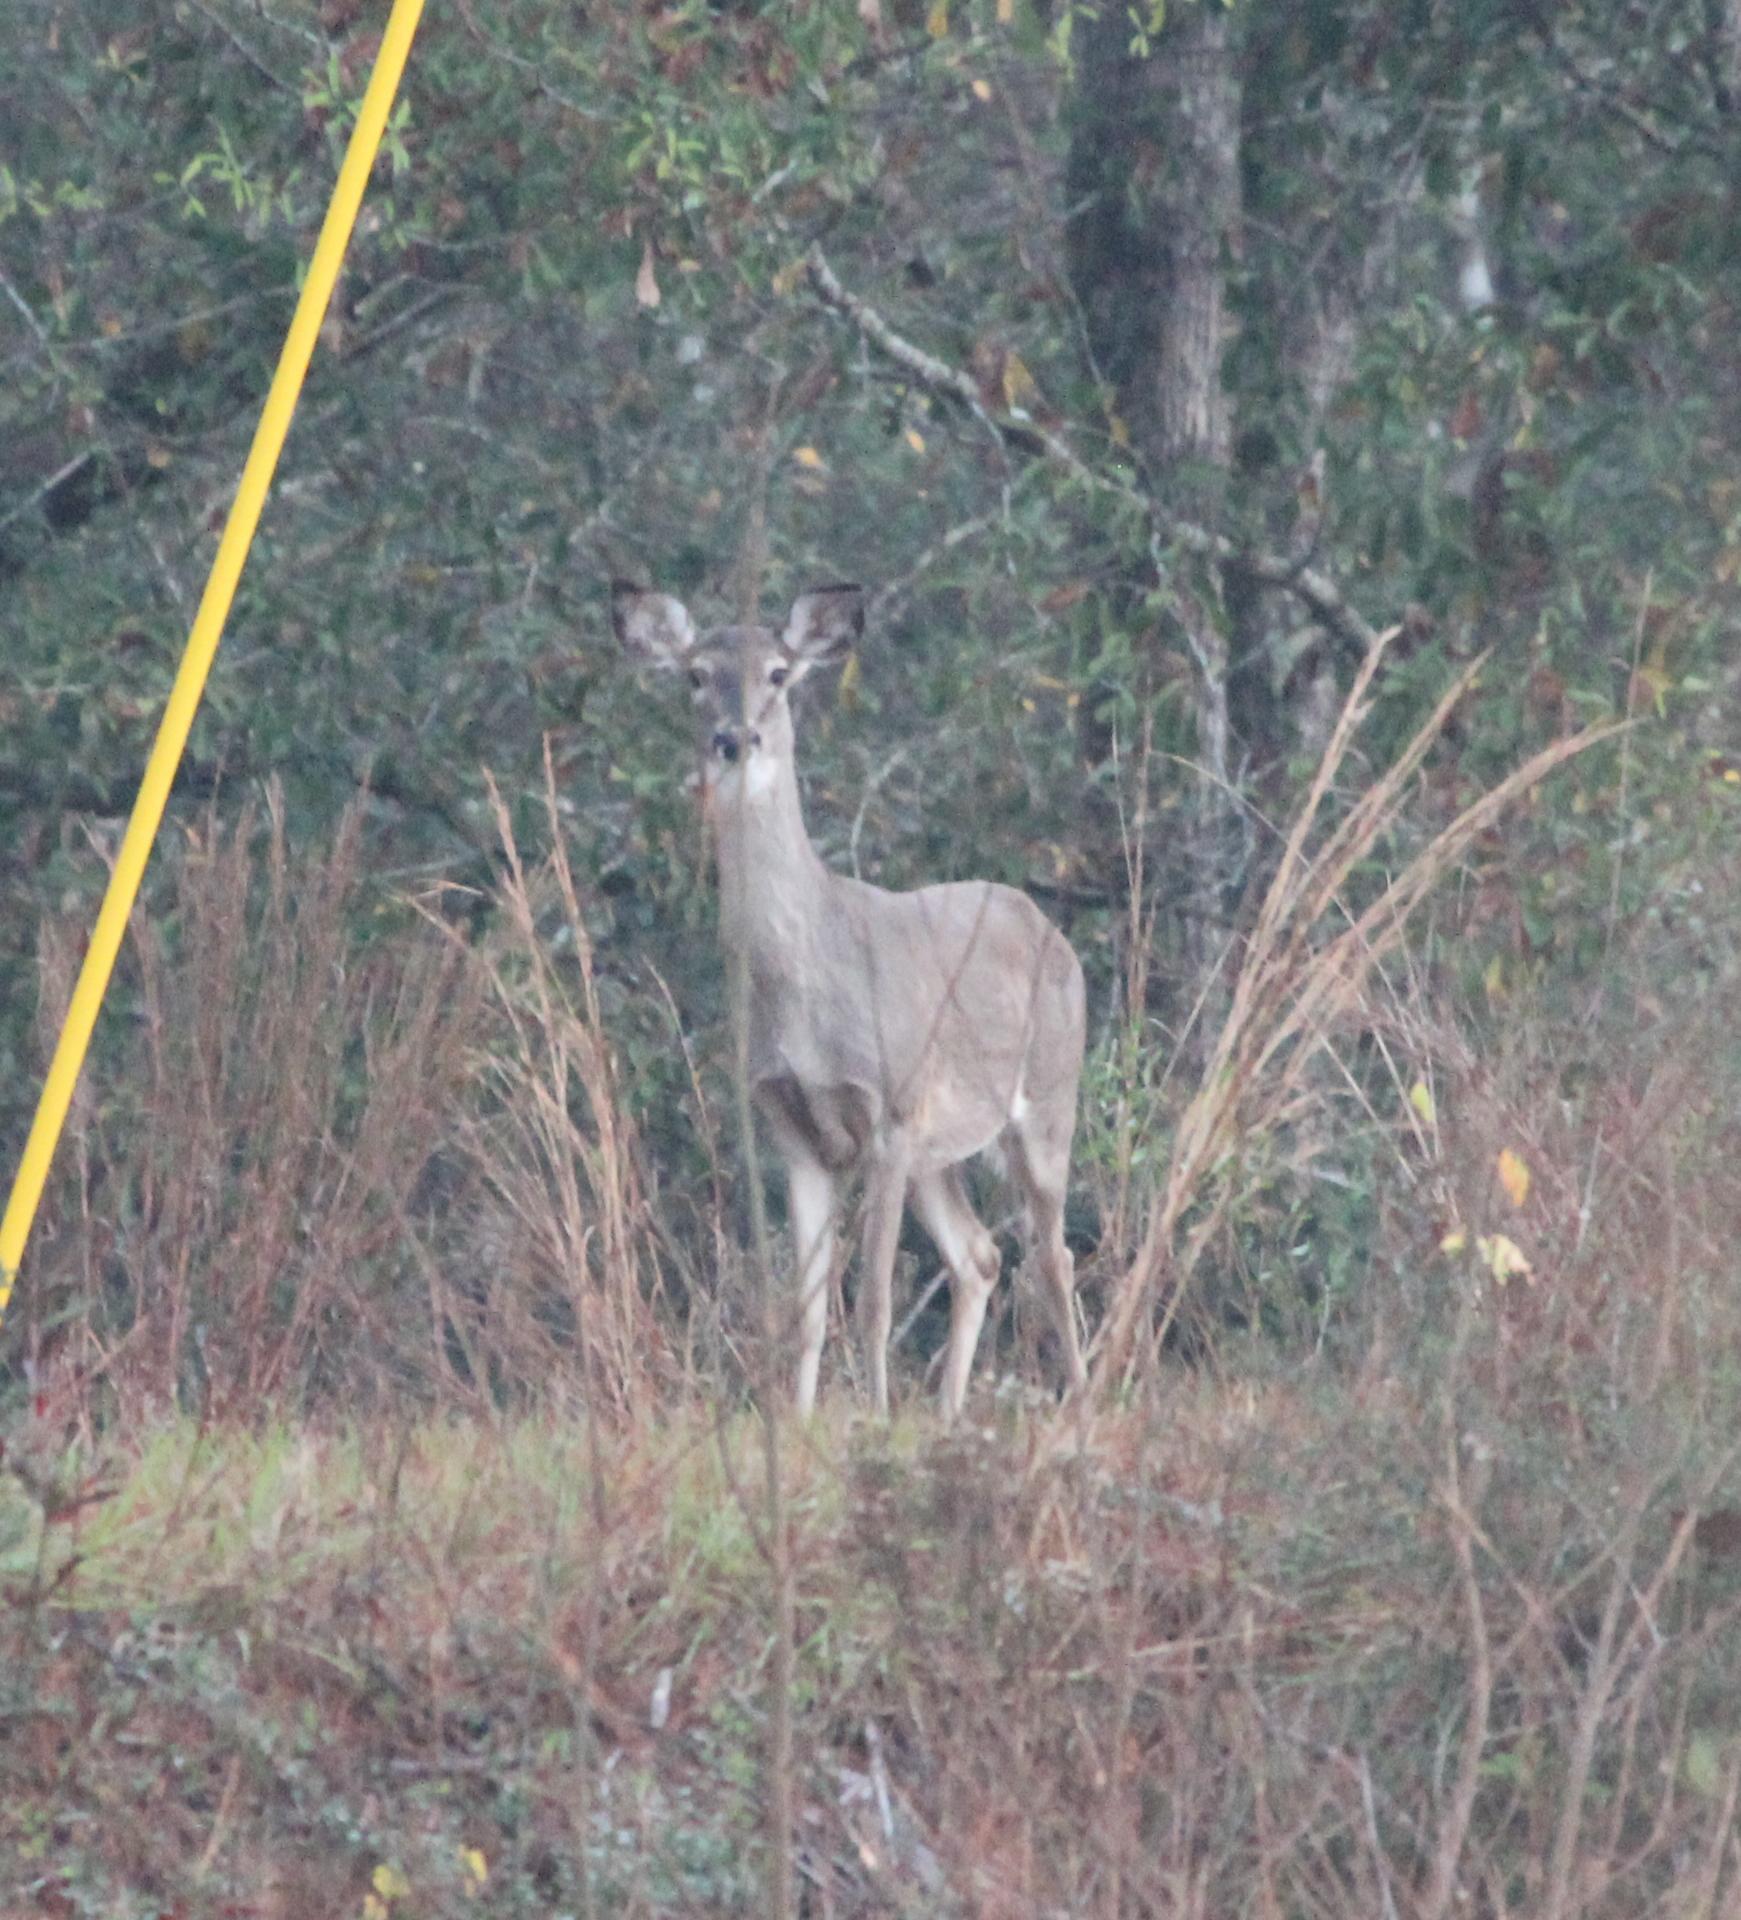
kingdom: Animalia
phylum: Chordata
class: Mammalia
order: Artiodactyla
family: Cervidae
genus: Odocoileus
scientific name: Odocoileus virginianus
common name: White-tailed deer
